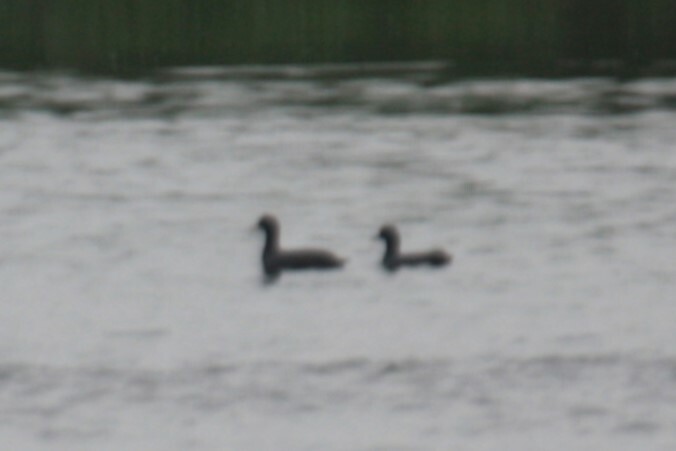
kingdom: Animalia
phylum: Chordata
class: Aves
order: Gruiformes
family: Rallidae
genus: Fulica
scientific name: Fulica atra
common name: Eurasian coot
